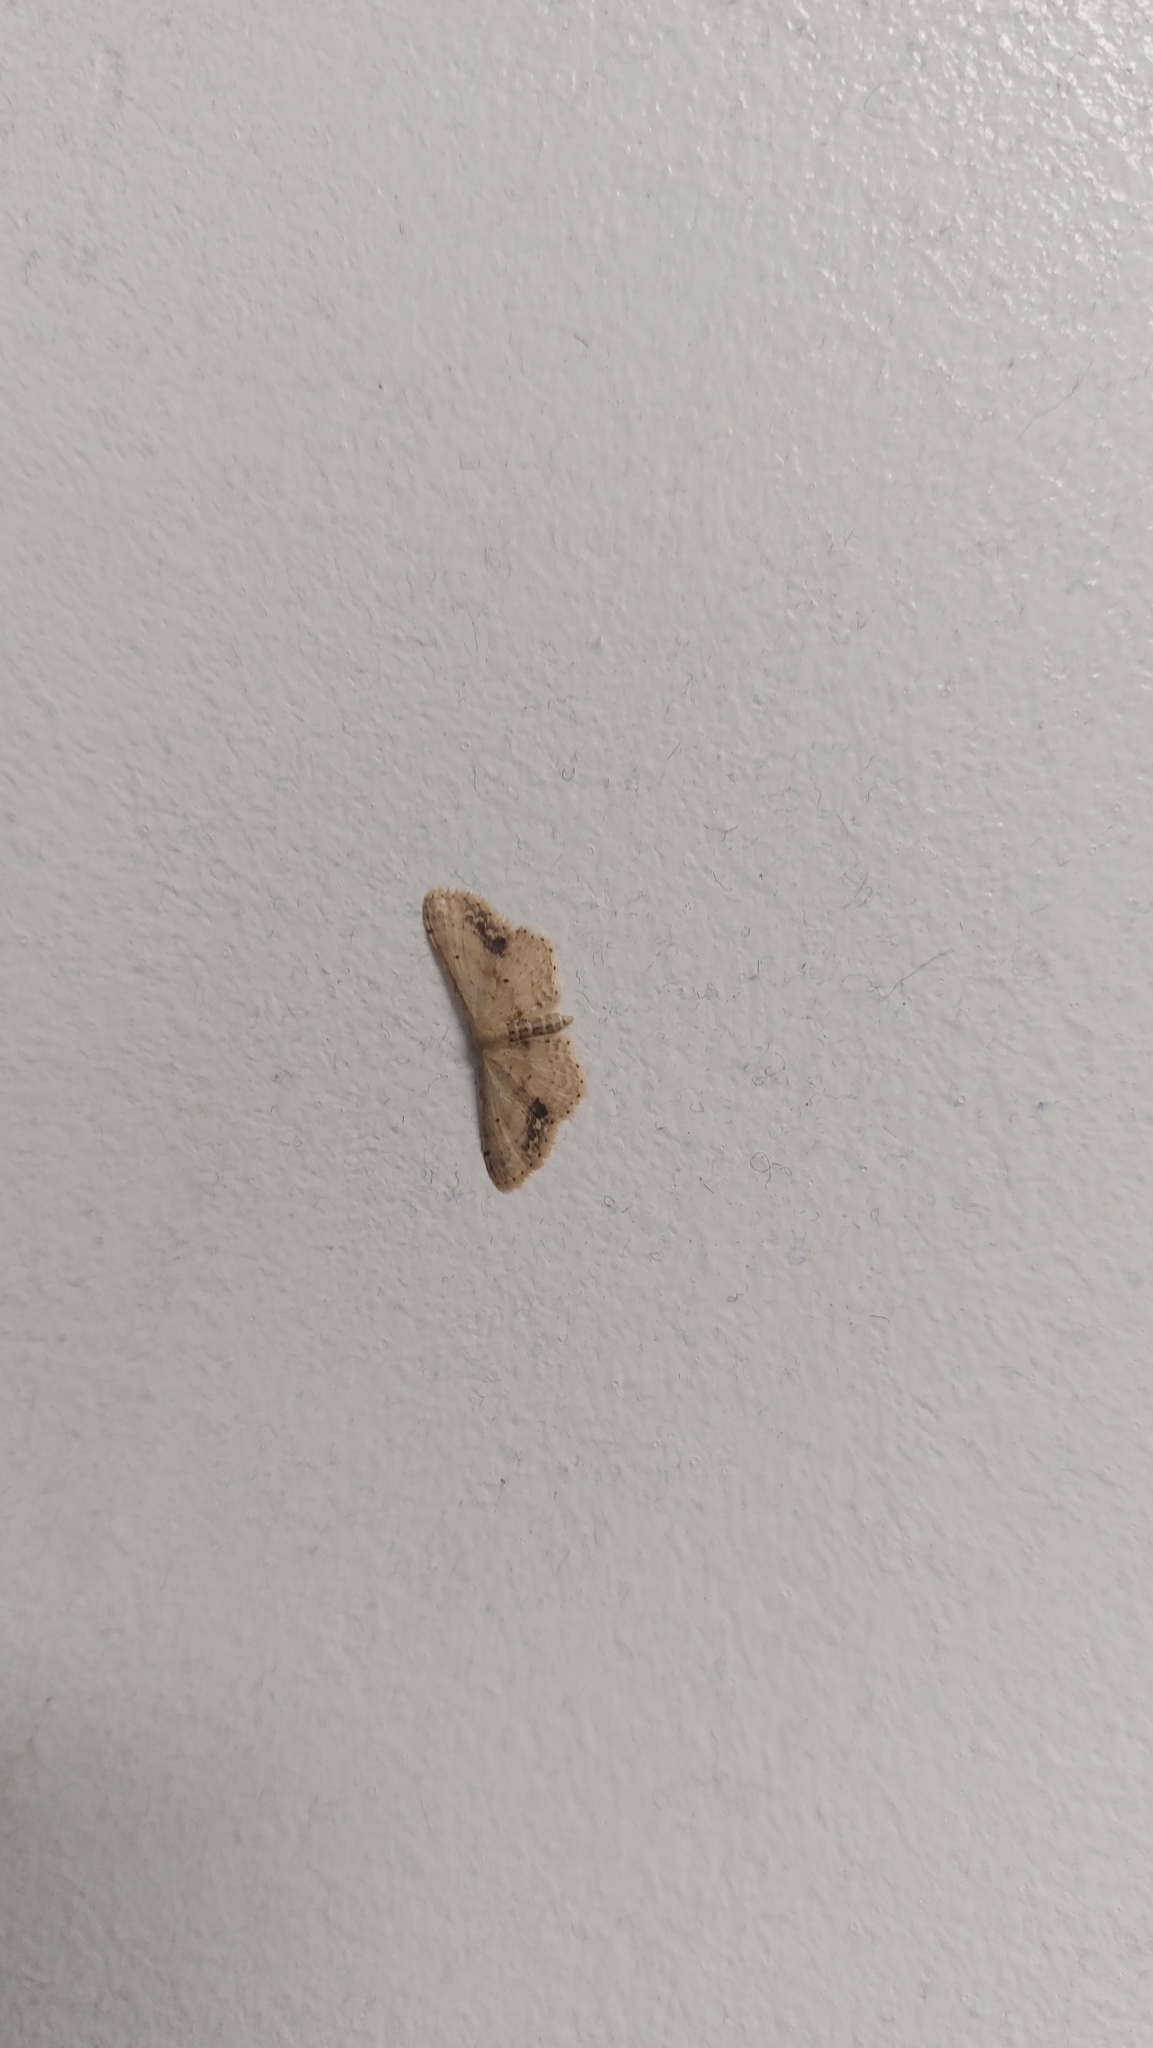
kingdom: Animalia
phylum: Arthropoda
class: Insecta
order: Lepidoptera
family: Geometridae
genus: Idaea
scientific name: Idaea dimidiata
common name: Single-dotted wave
